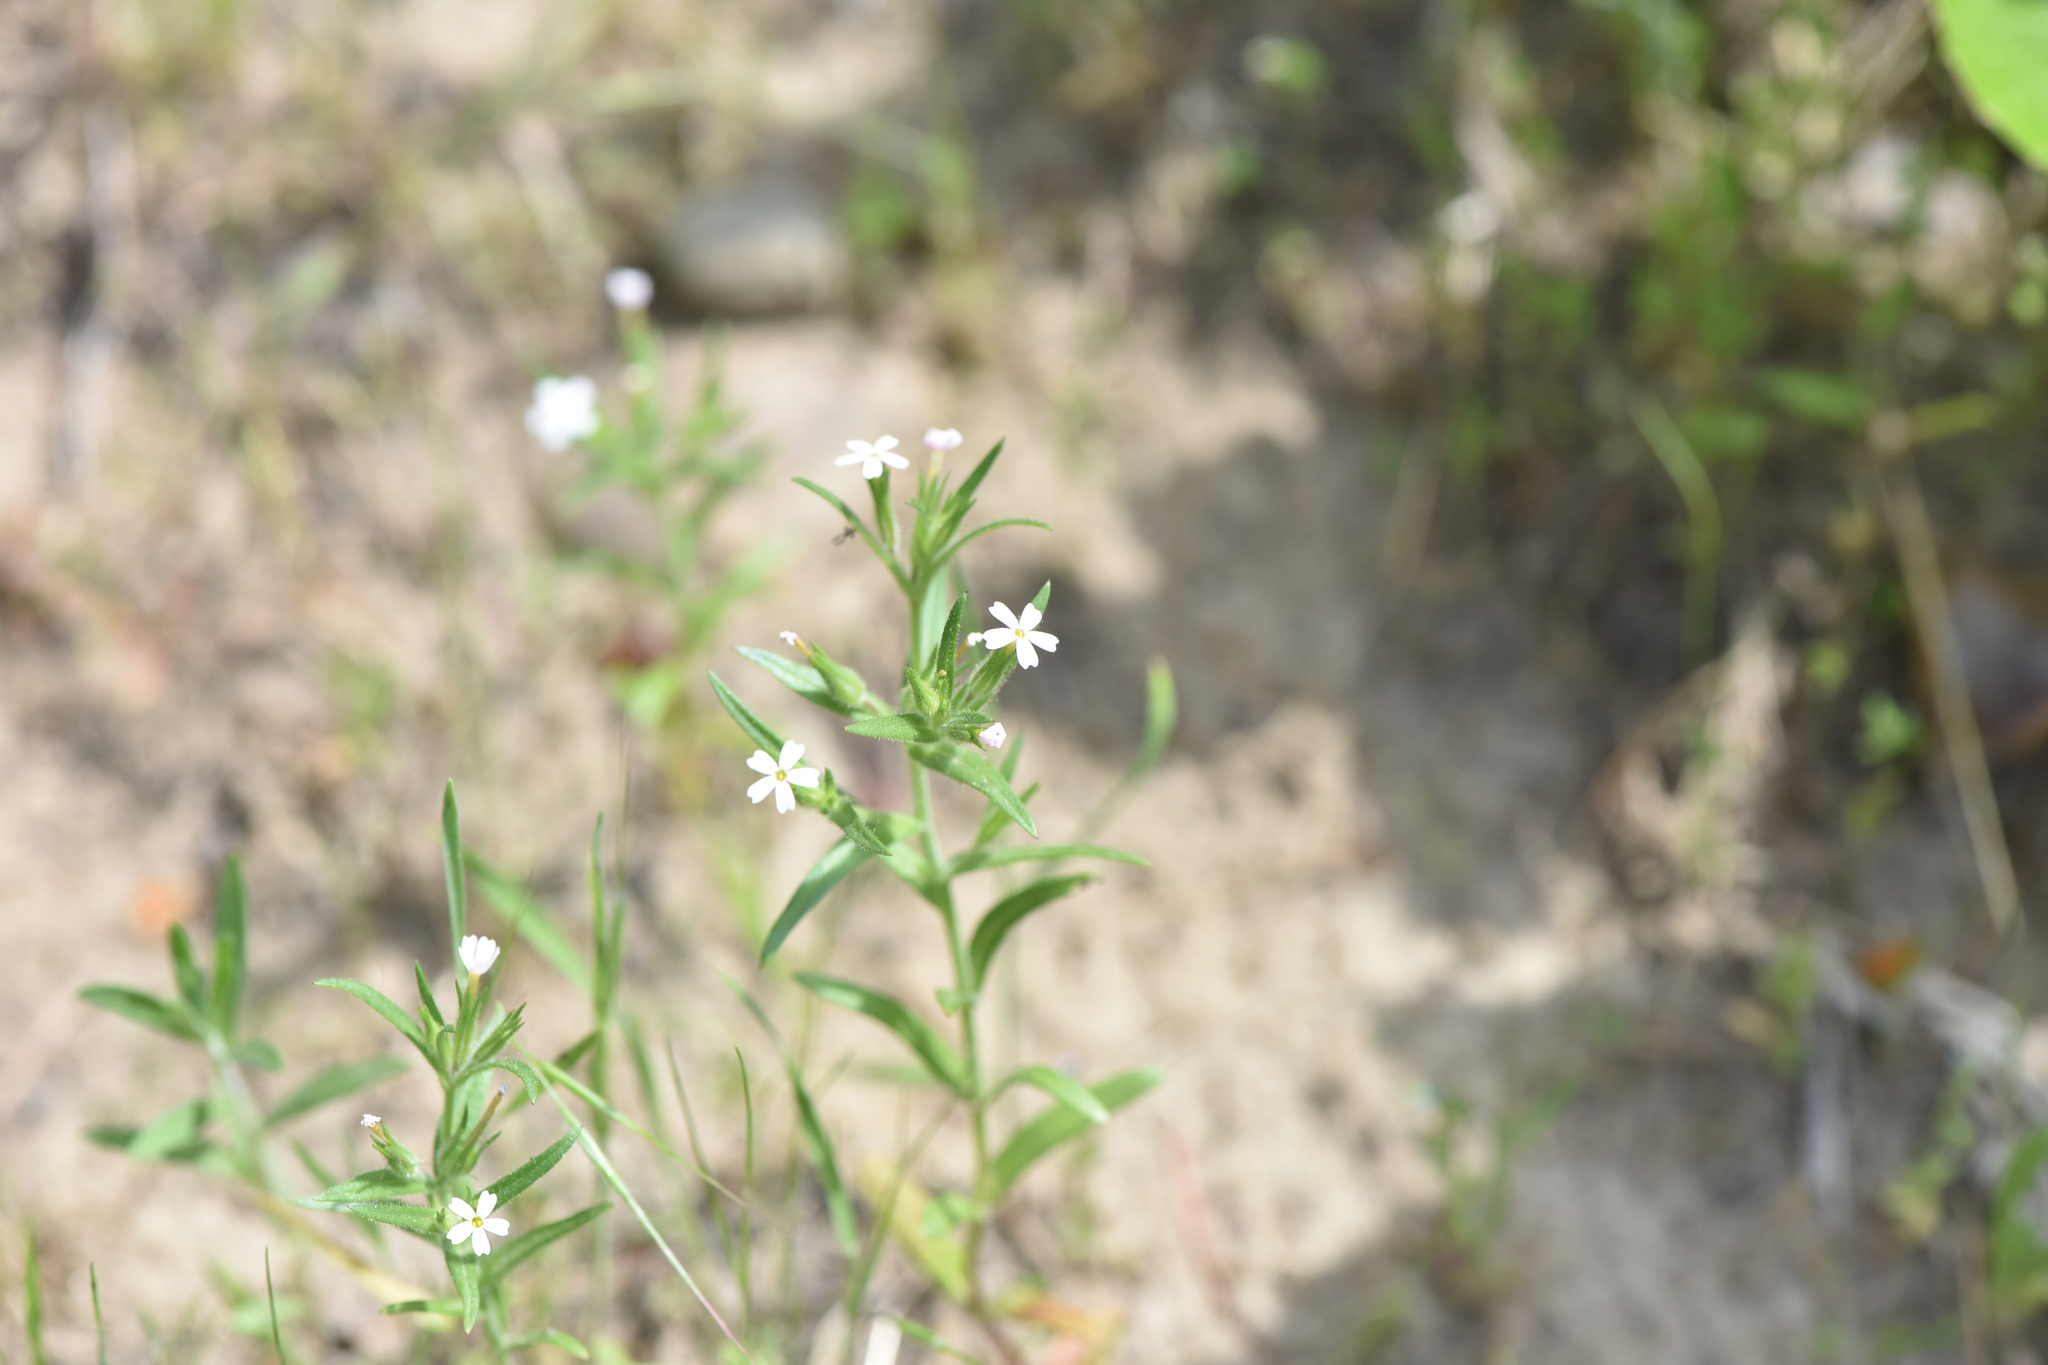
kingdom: Plantae
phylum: Tracheophyta
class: Magnoliopsida
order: Ericales
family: Polemoniaceae
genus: Phlox
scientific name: Phlox gracilis
